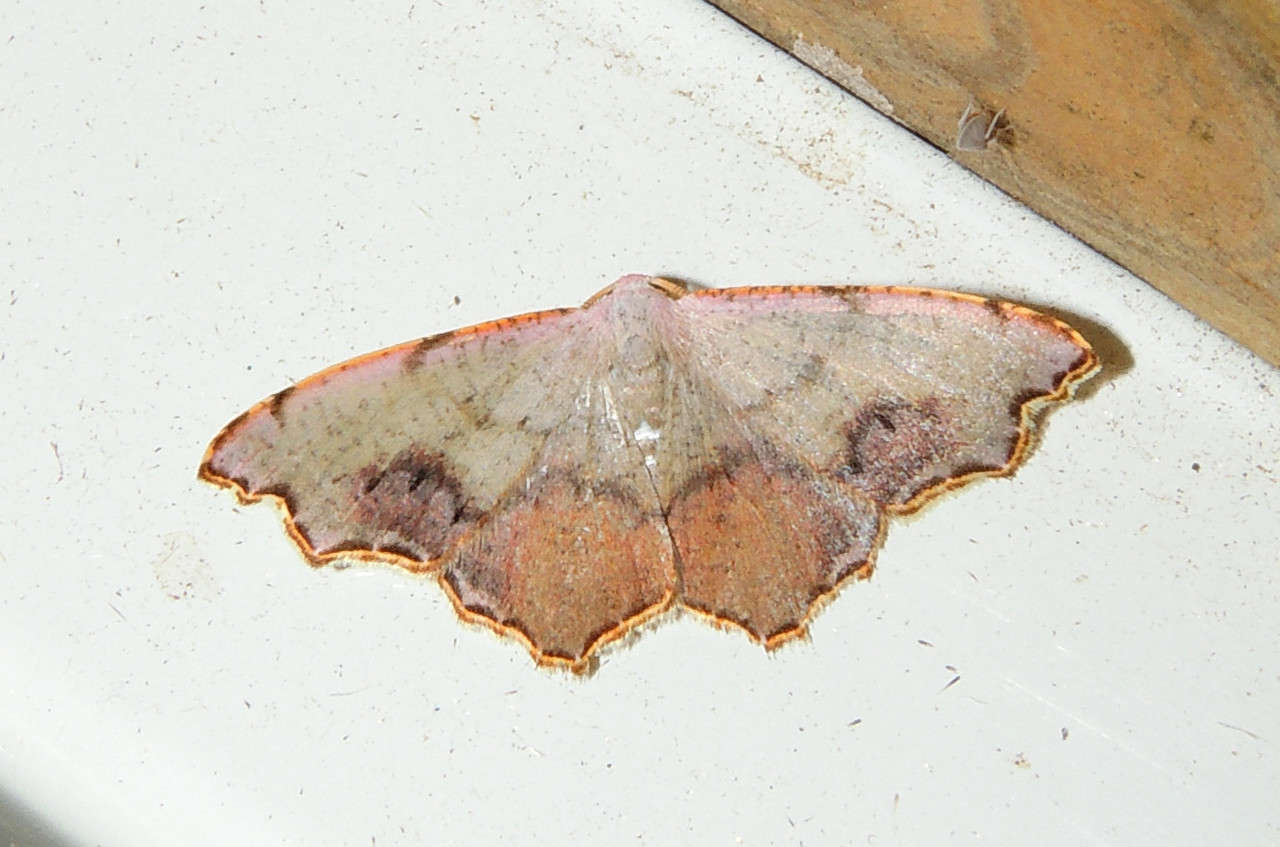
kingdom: Animalia
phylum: Arthropoda
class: Insecta
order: Lepidoptera
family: Geometridae
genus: Epicompsa
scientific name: Epicompsa xanthocrossa
